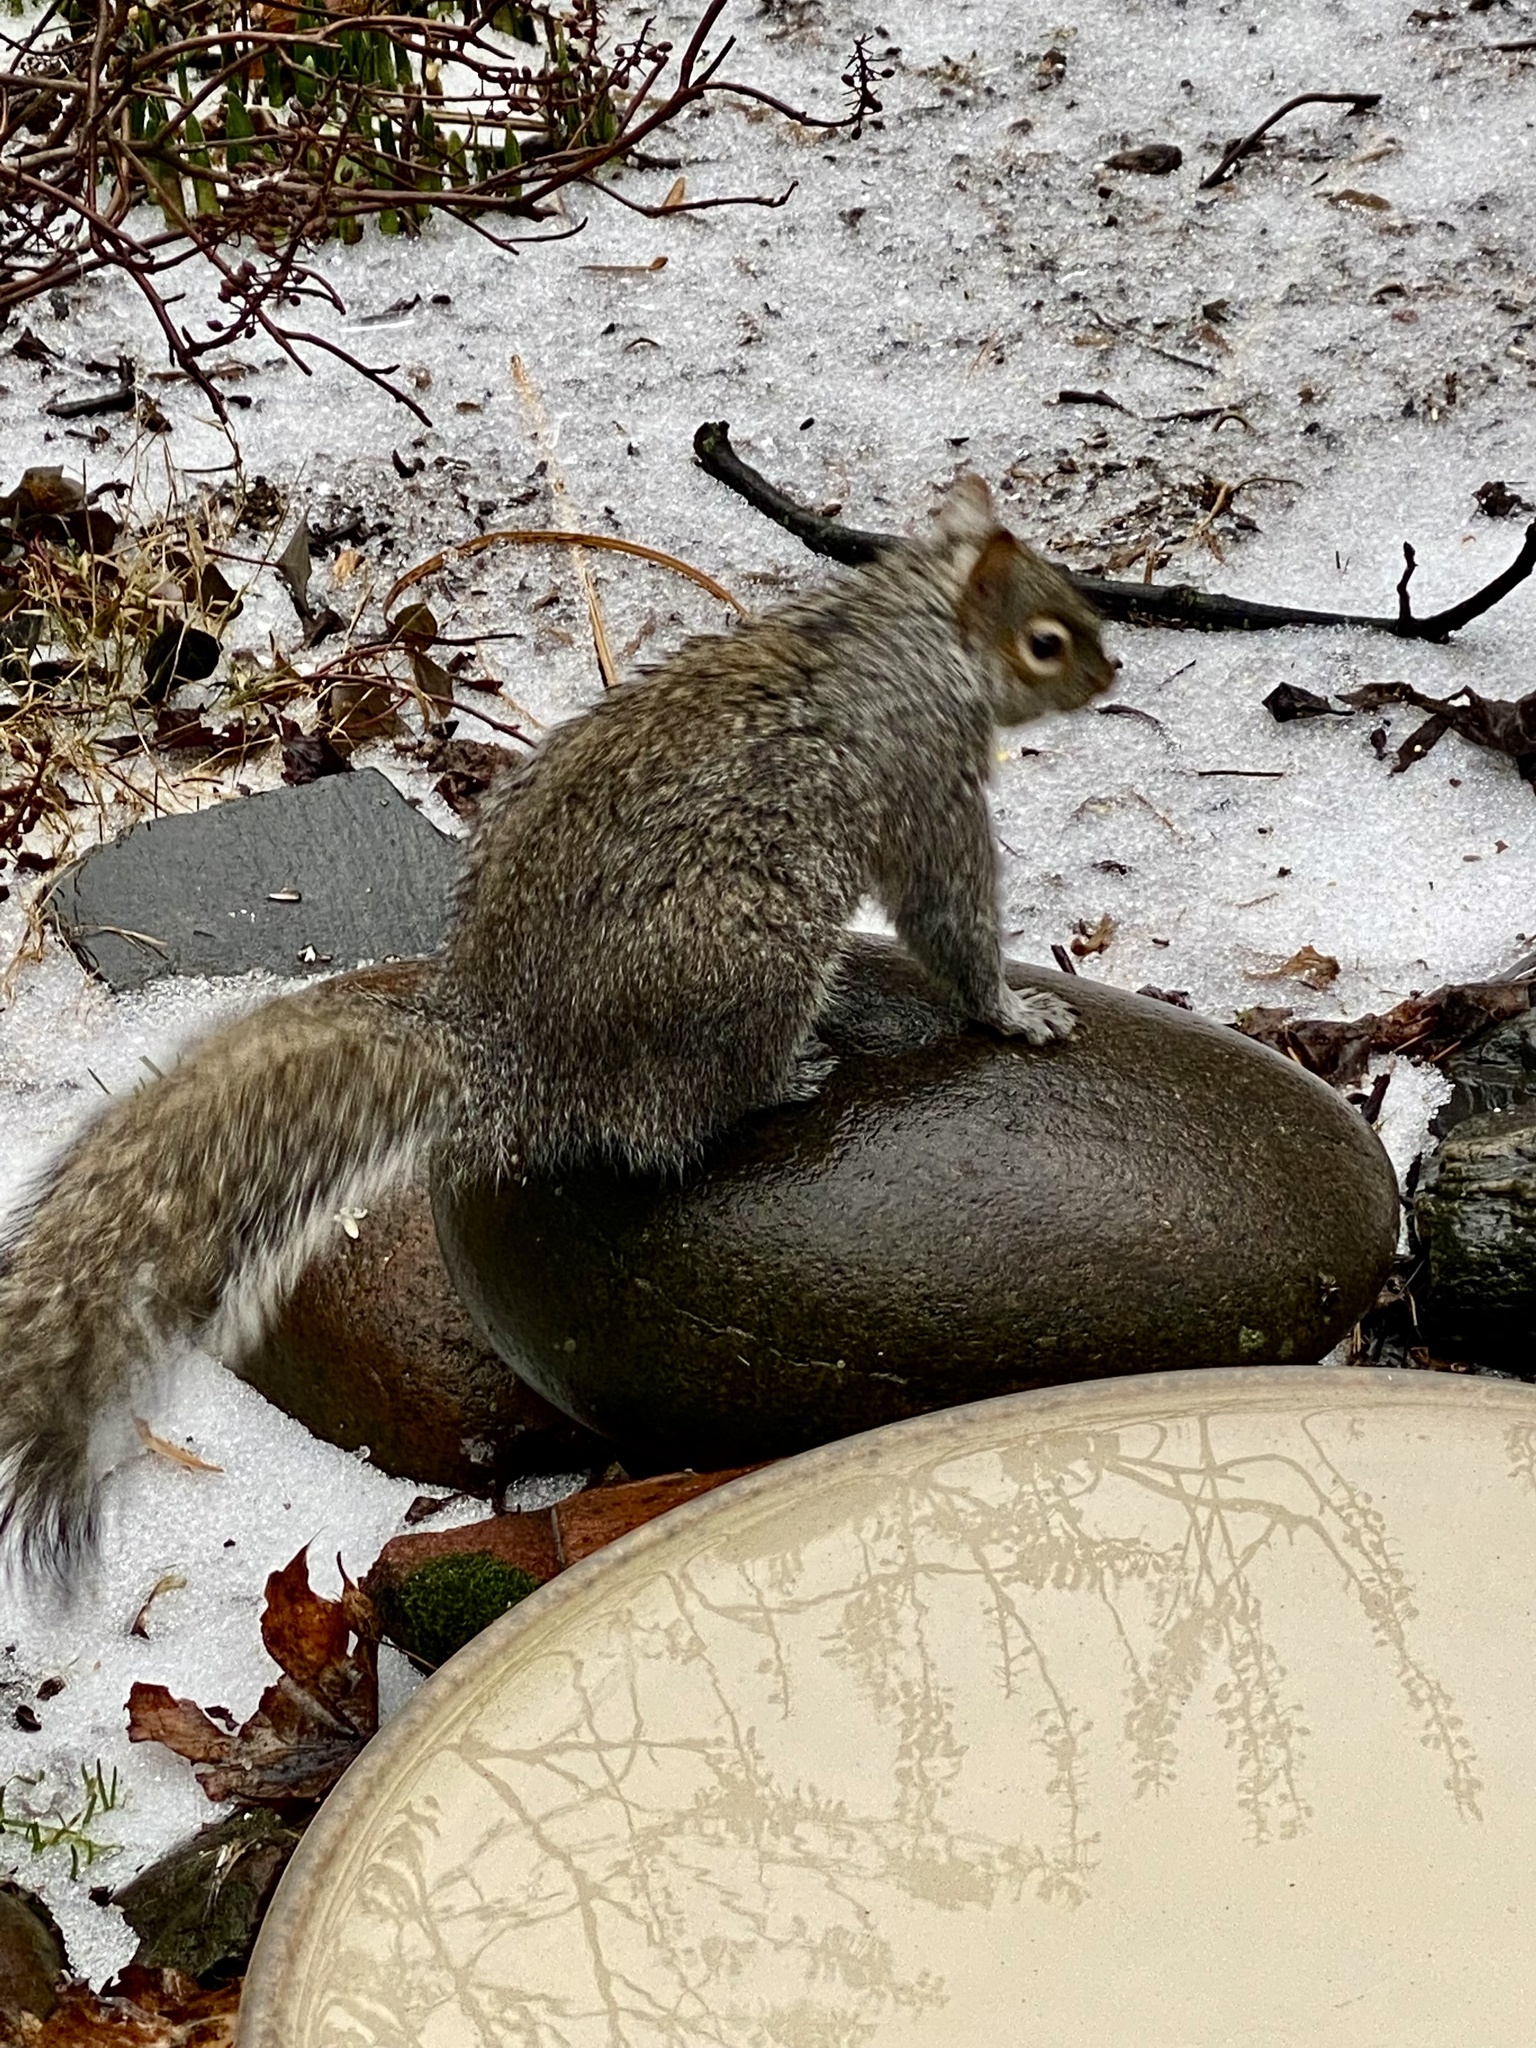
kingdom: Animalia
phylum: Chordata
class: Mammalia
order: Rodentia
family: Sciuridae
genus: Sciurus
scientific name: Sciurus carolinensis
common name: Eastern gray squirrel
